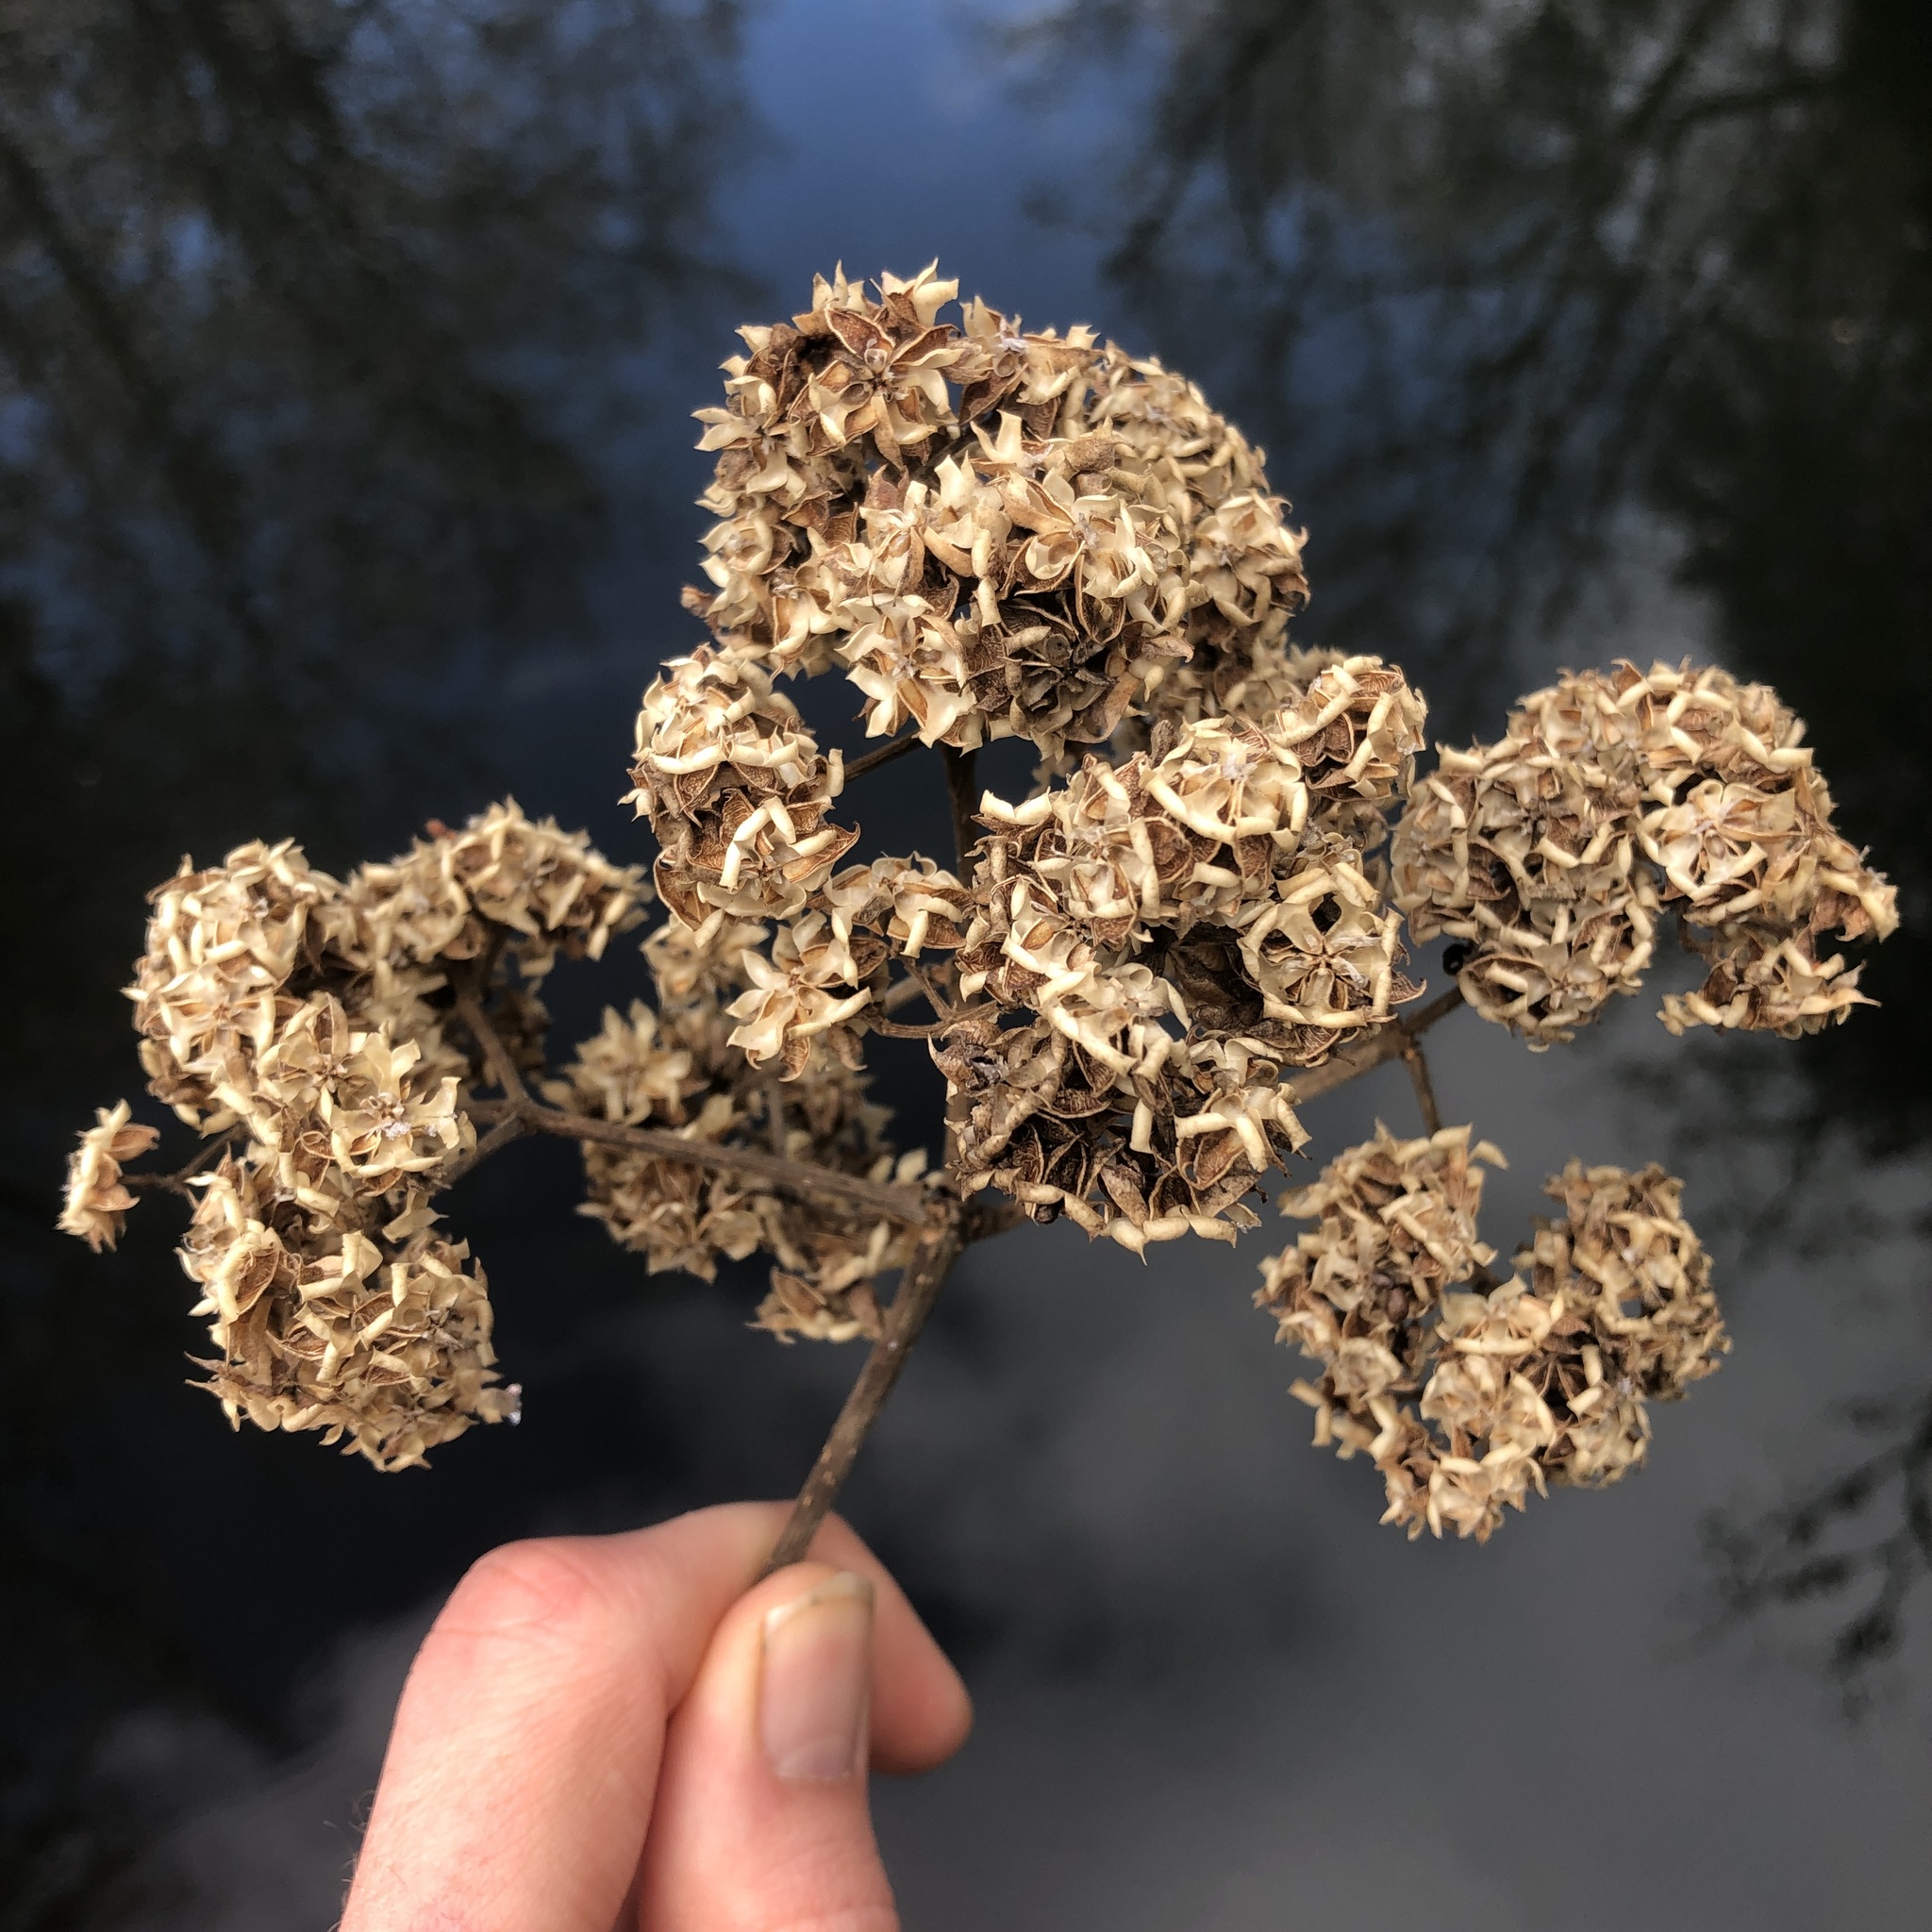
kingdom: Plantae
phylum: Tracheophyta
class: Magnoliopsida
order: Sapindales
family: Rutaceae
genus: Tetradium
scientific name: Tetradium daniellii
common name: Bee-bee tree
